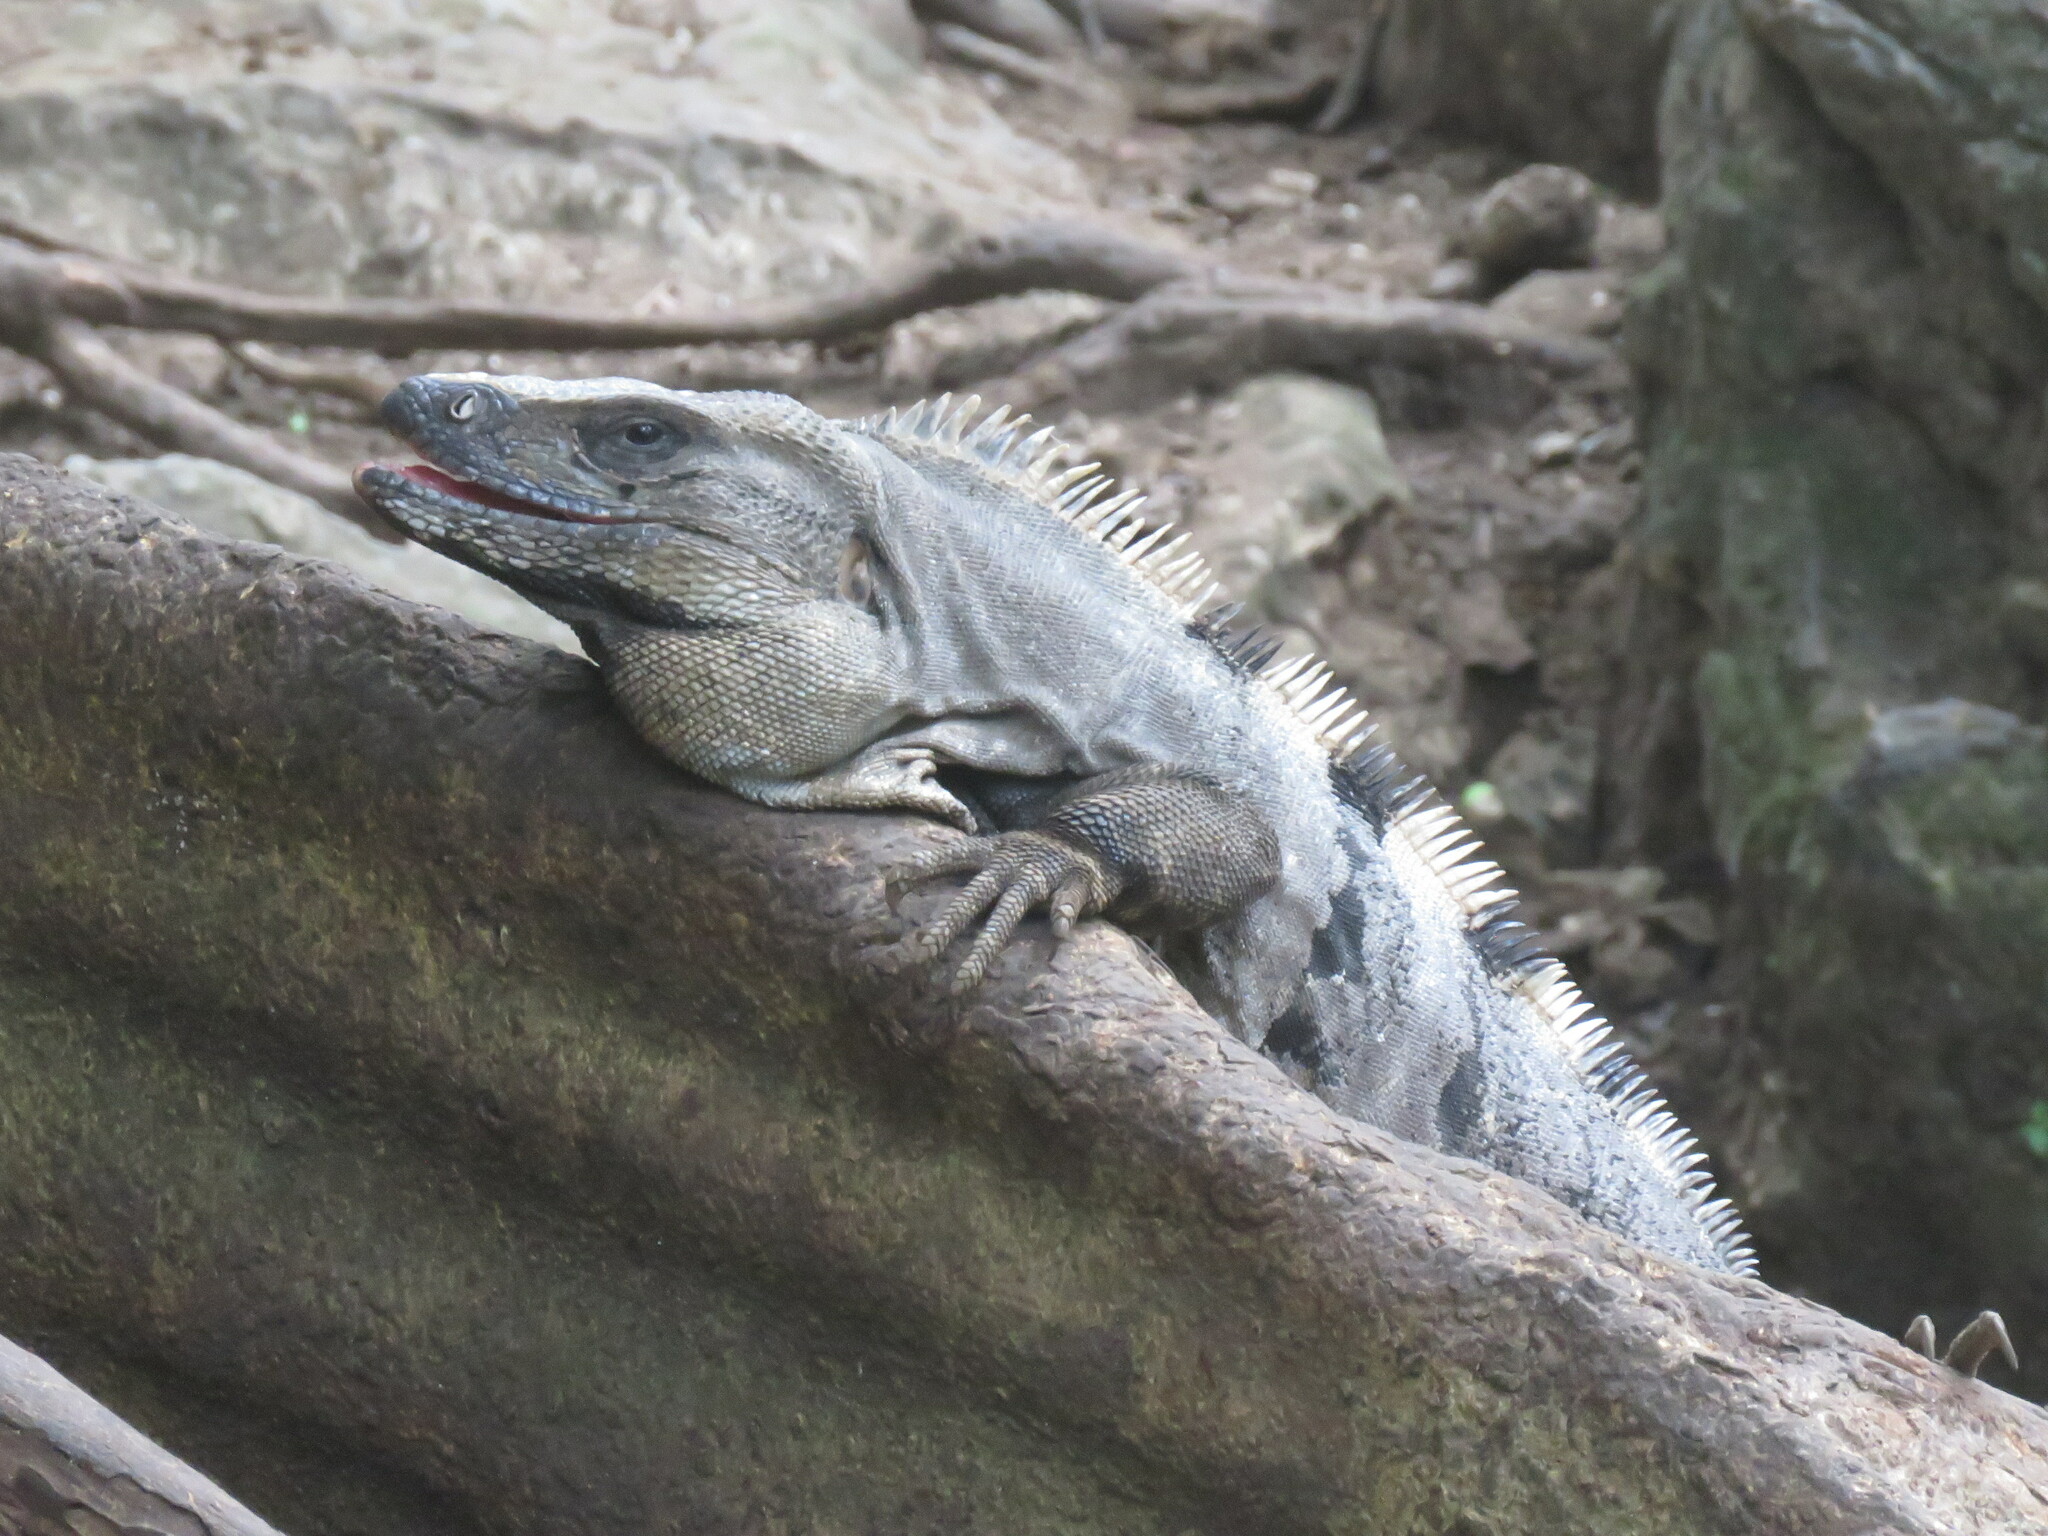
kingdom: Animalia
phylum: Chordata
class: Squamata
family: Iguanidae
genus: Ctenosaura
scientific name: Ctenosaura similis
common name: Black spiny-tailed iguana
